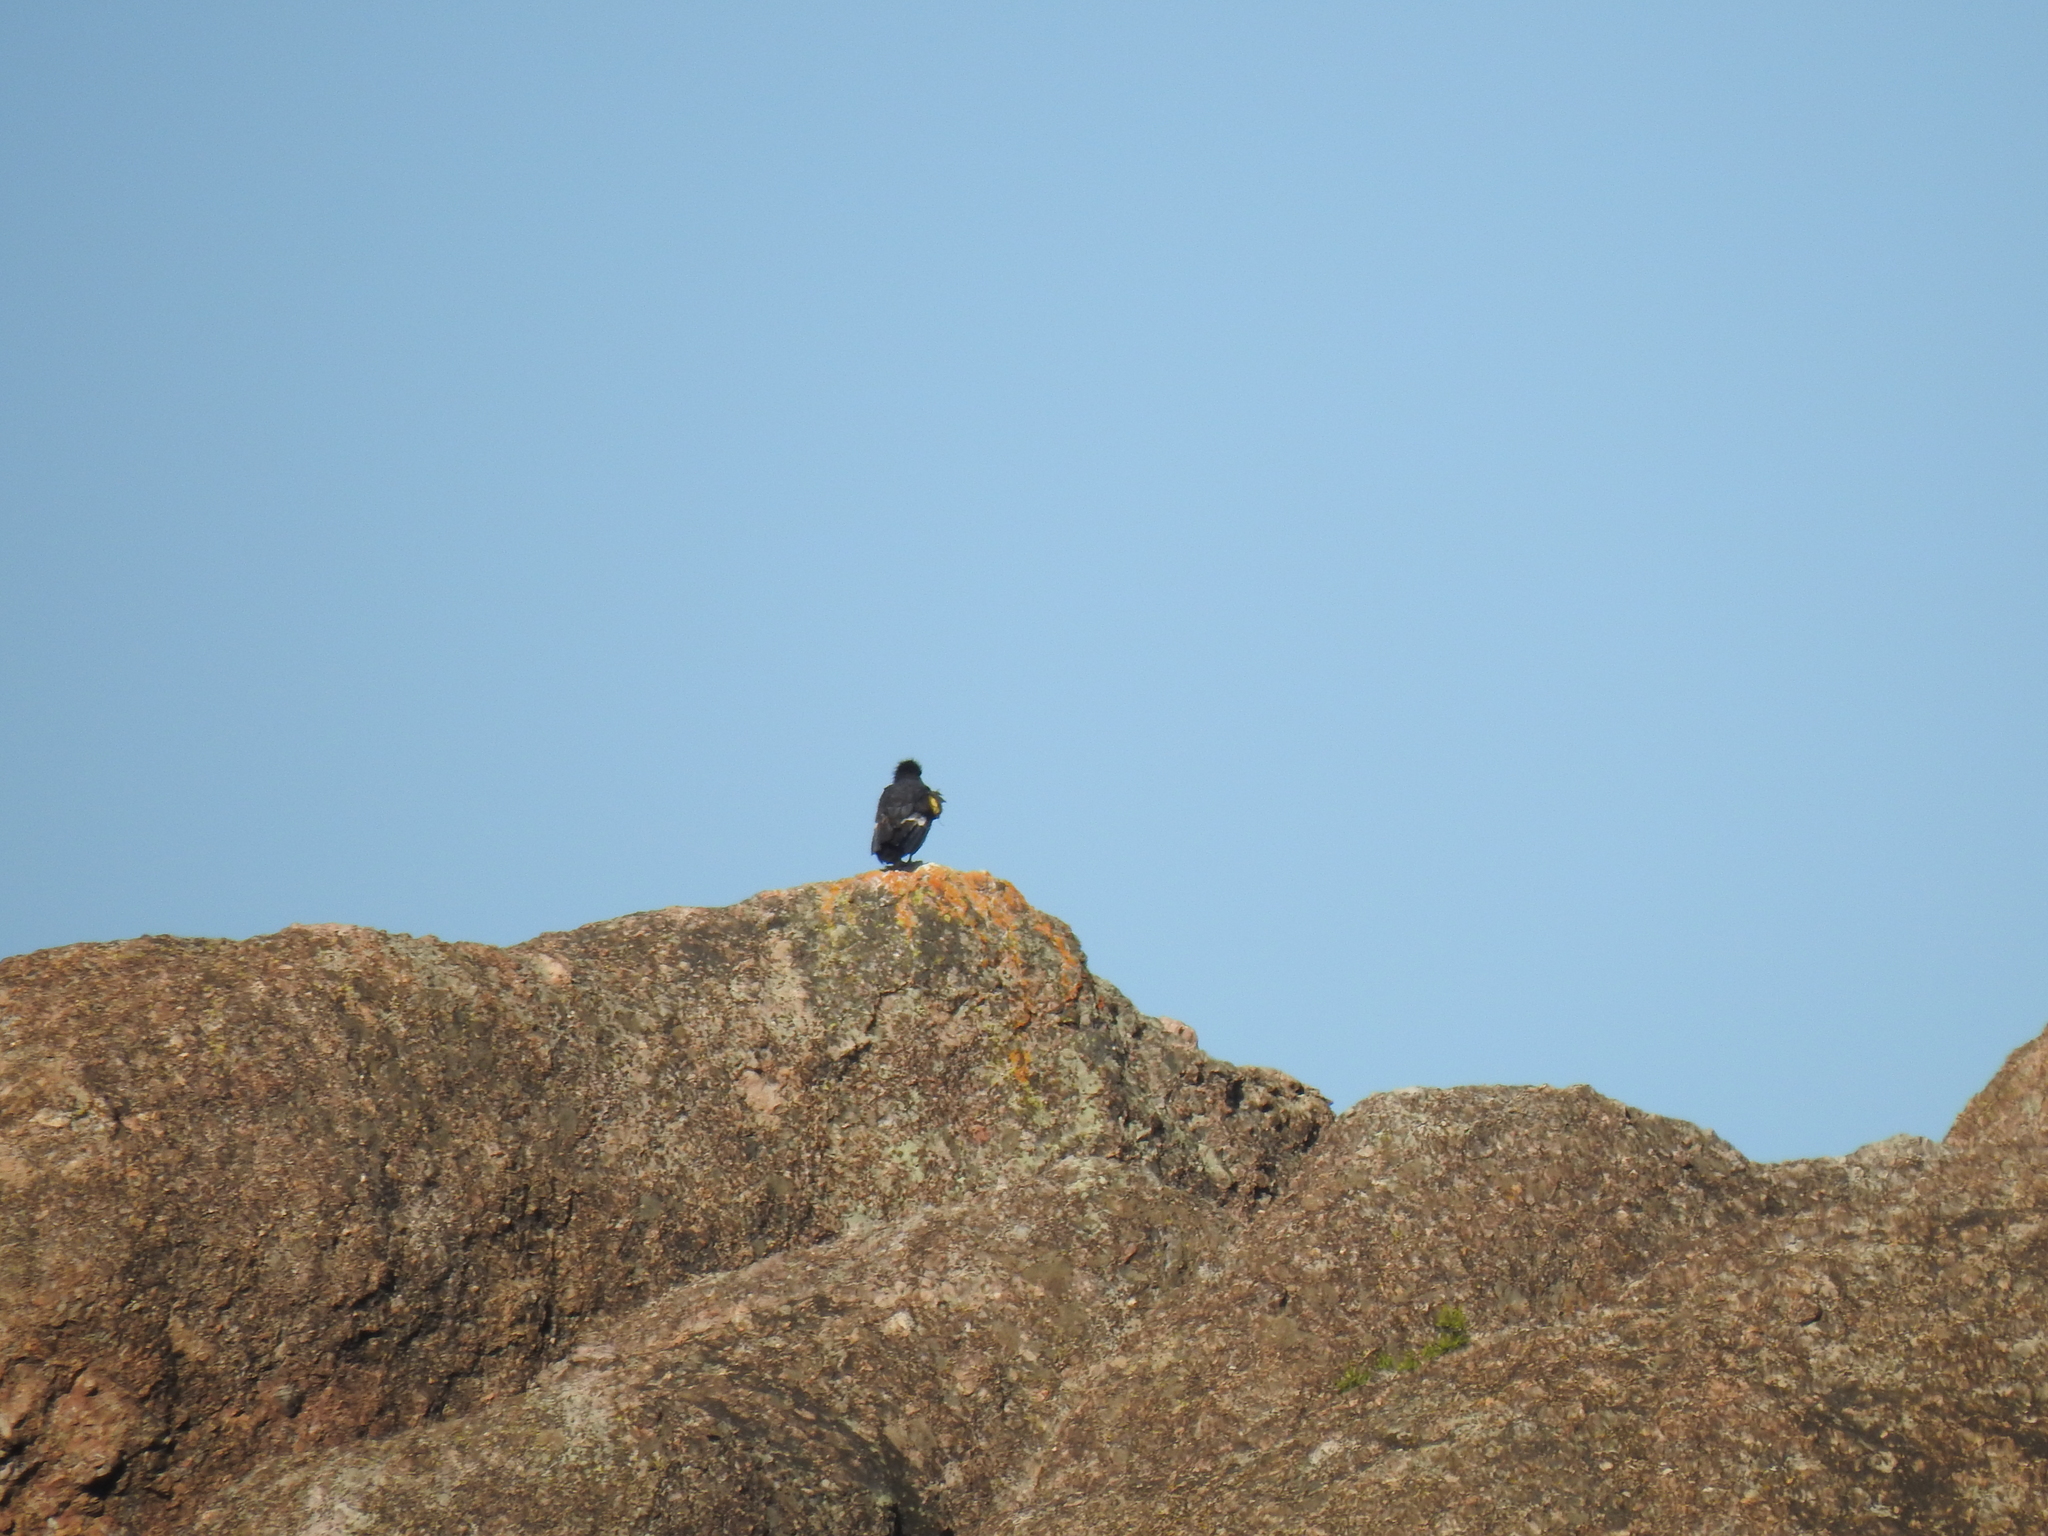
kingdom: Animalia
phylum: Chordata
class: Aves
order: Accipitriformes
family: Cathartidae
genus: Gymnogyps
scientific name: Gymnogyps californianus
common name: California condor
